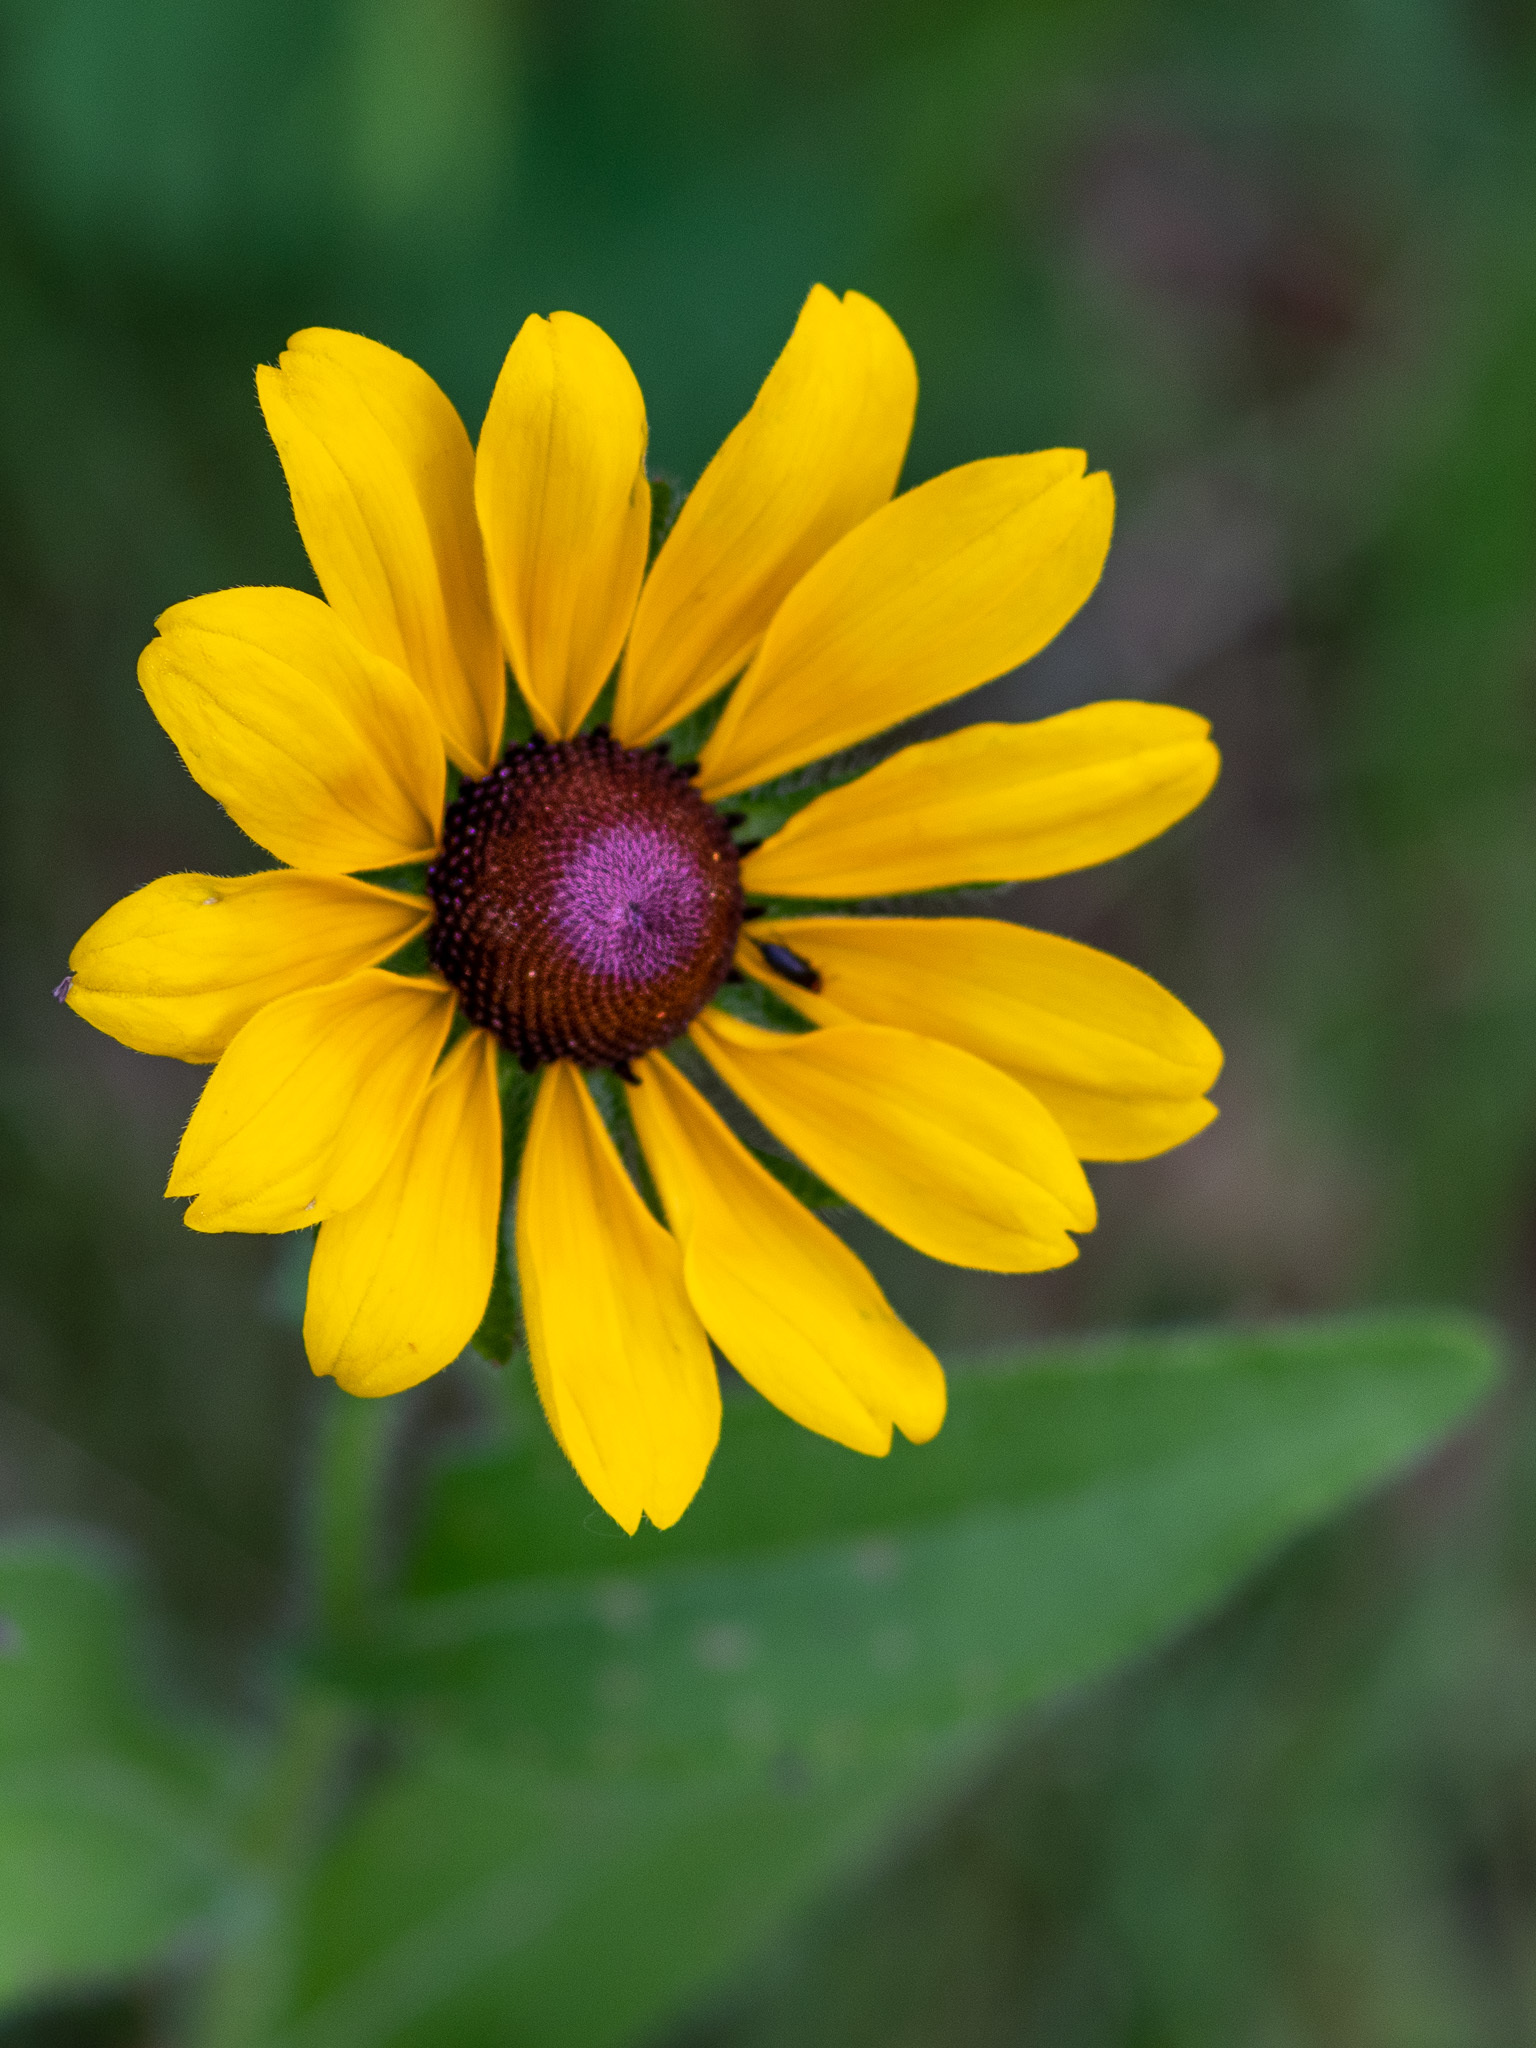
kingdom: Plantae
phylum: Tracheophyta
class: Magnoliopsida
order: Asterales
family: Asteraceae
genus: Rudbeckia
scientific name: Rudbeckia hirta
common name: Black-eyed-susan
